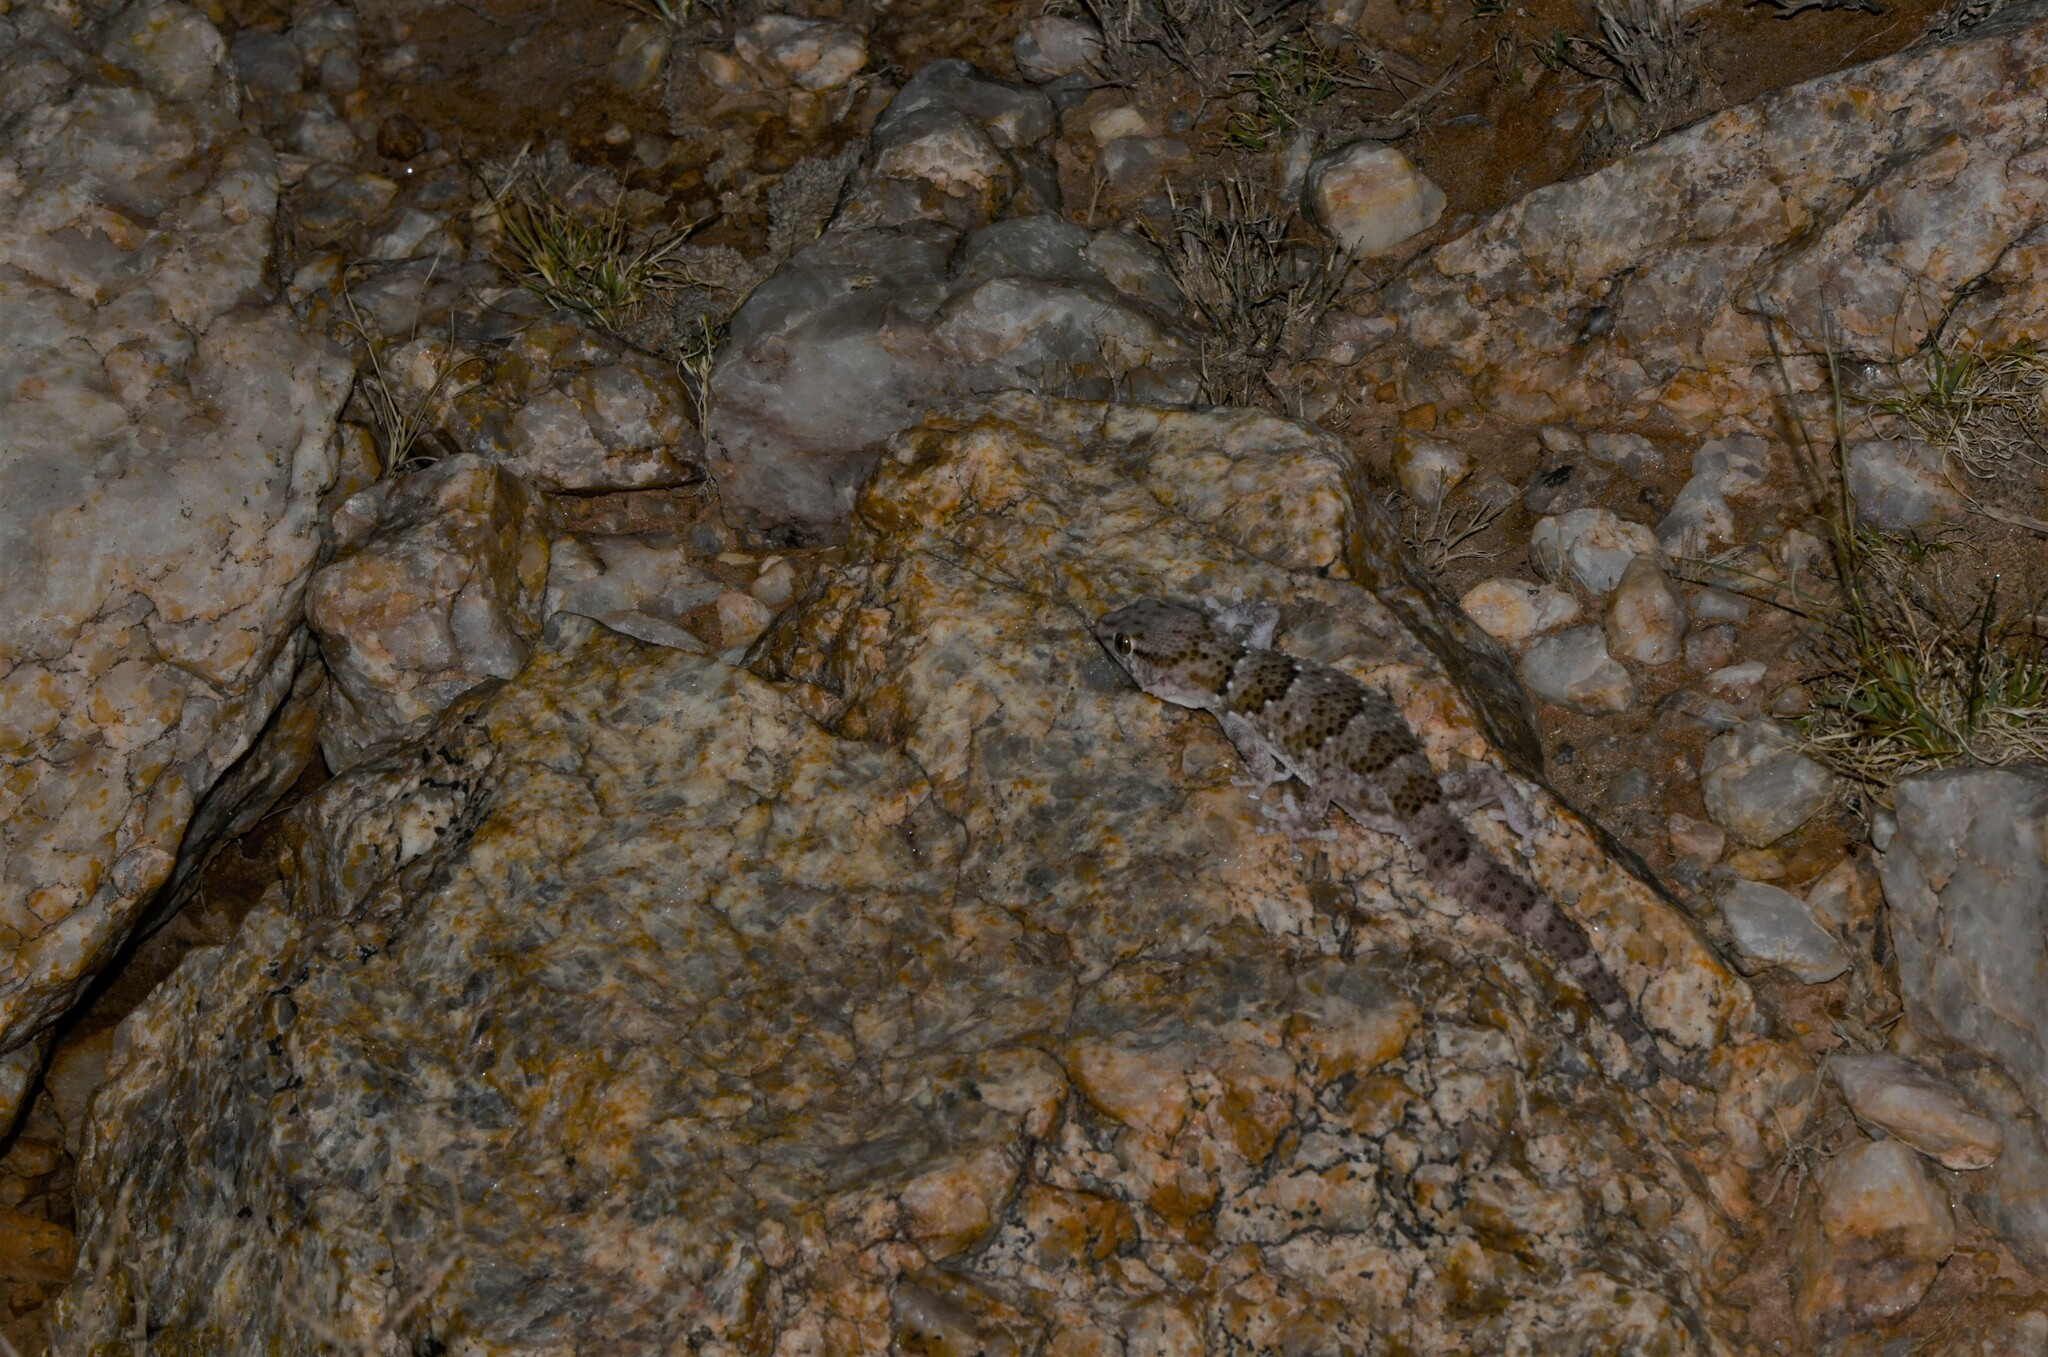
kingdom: Animalia
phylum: Chordata
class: Squamata
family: Gekkonidae
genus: Chondrodactylus
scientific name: Chondrodactylus laevigatus
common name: Fischer's thick-toed gecko
